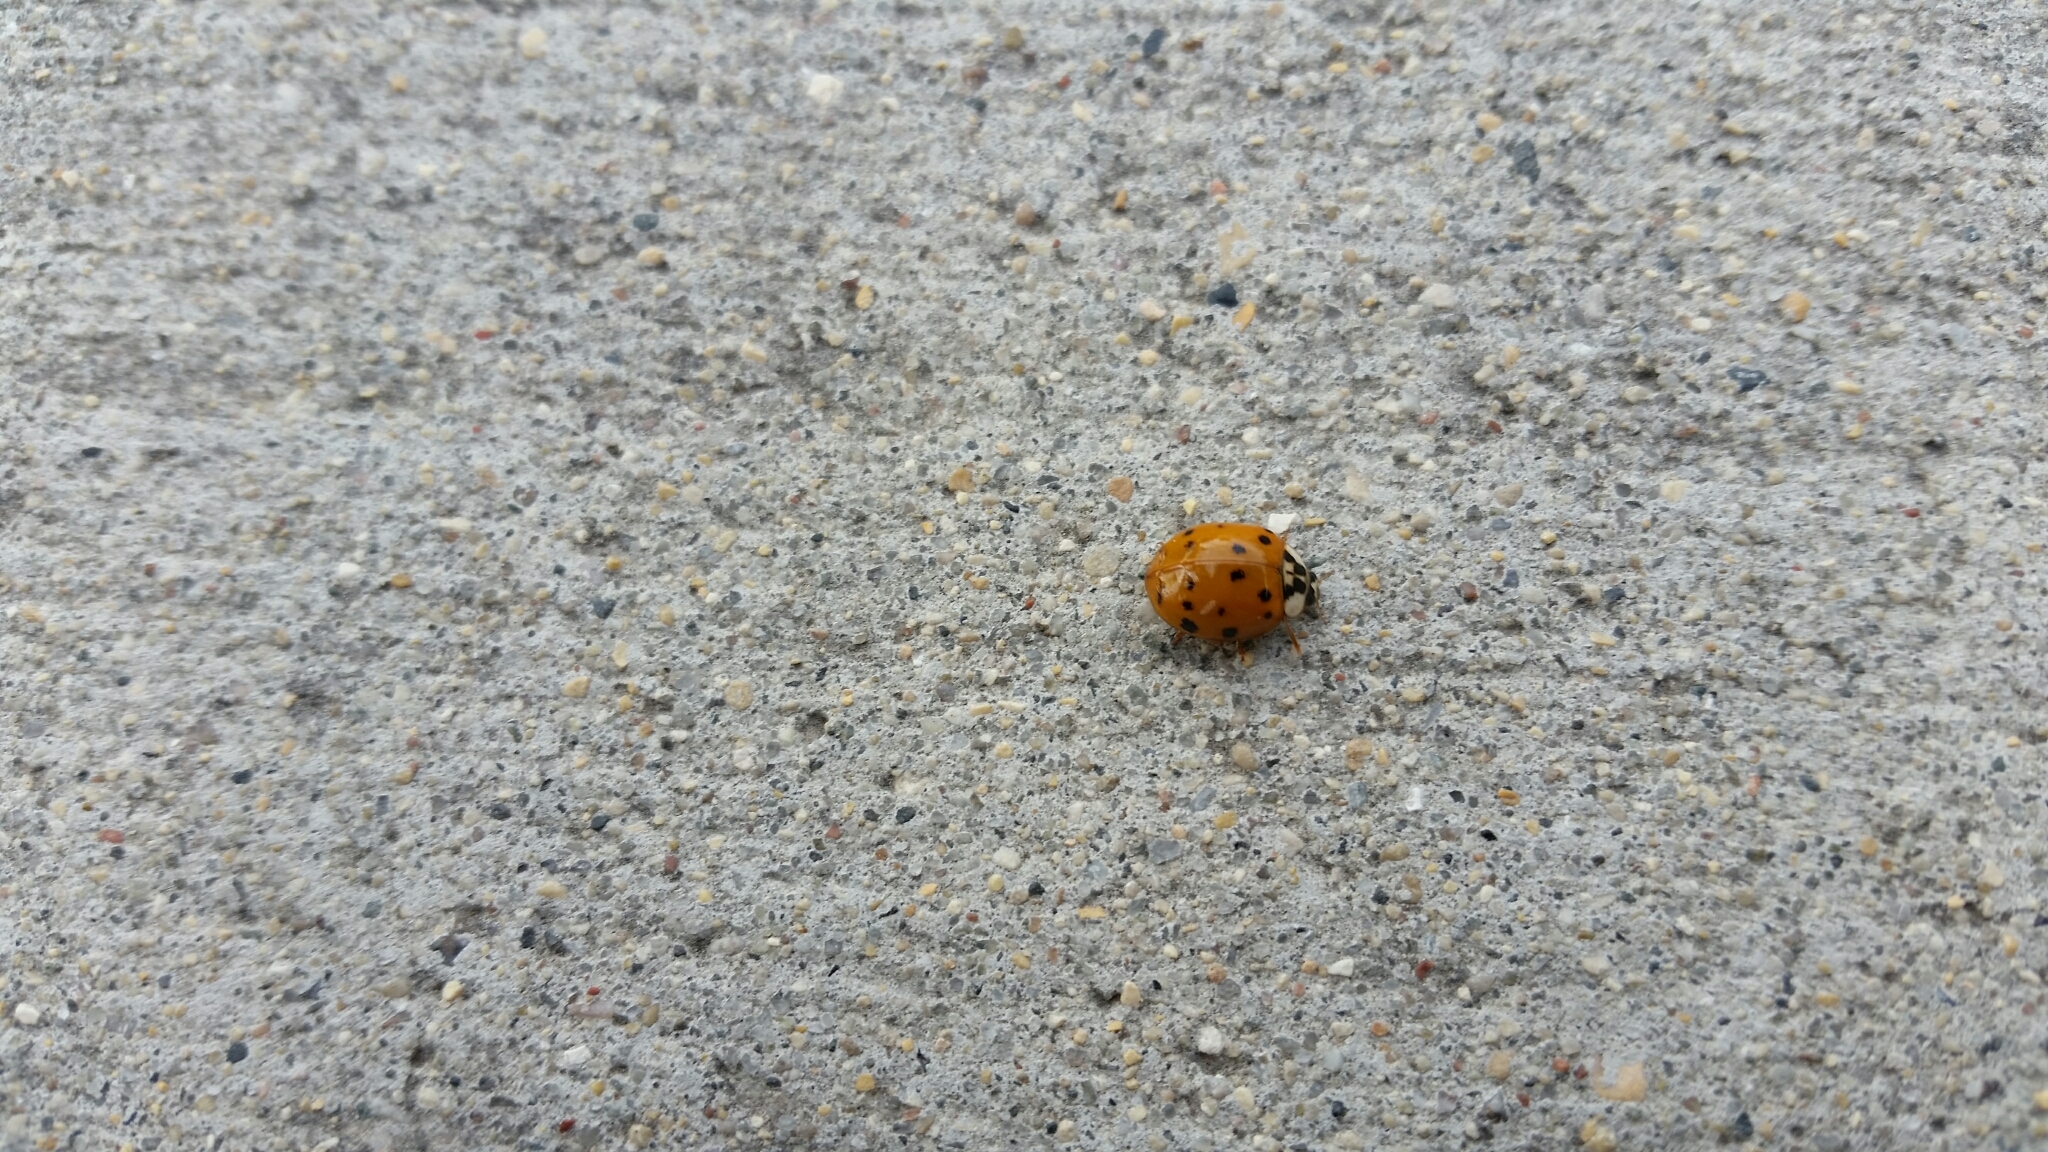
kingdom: Animalia
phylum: Arthropoda
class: Insecta
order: Coleoptera
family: Coccinellidae
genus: Harmonia
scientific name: Harmonia axyridis
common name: Harlequin ladybird
